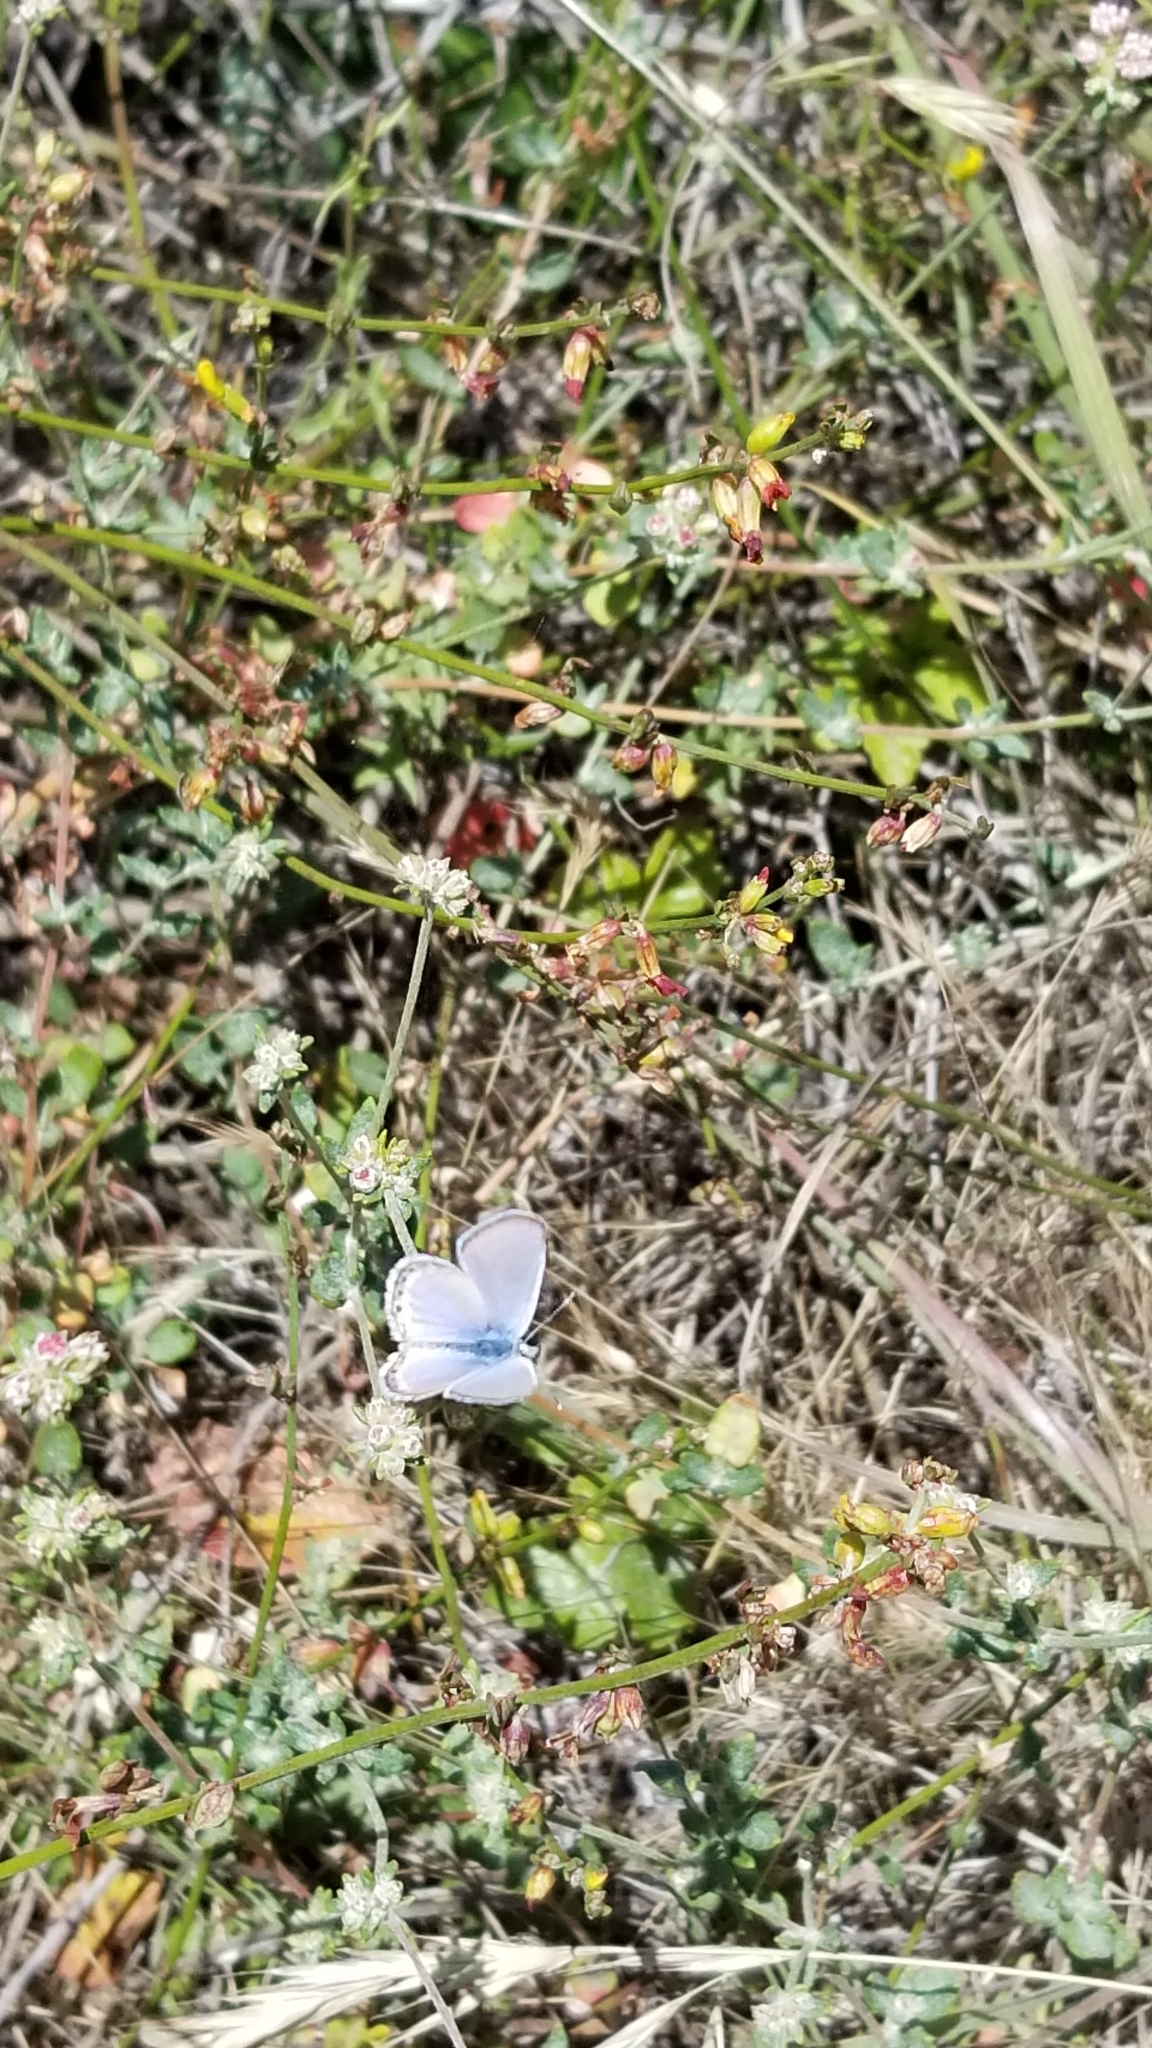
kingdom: Animalia
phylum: Arthropoda
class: Insecta
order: Lepidoptera
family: Lycaenidae
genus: Icaricia
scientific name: Icaricia acmon
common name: Acmon blue
